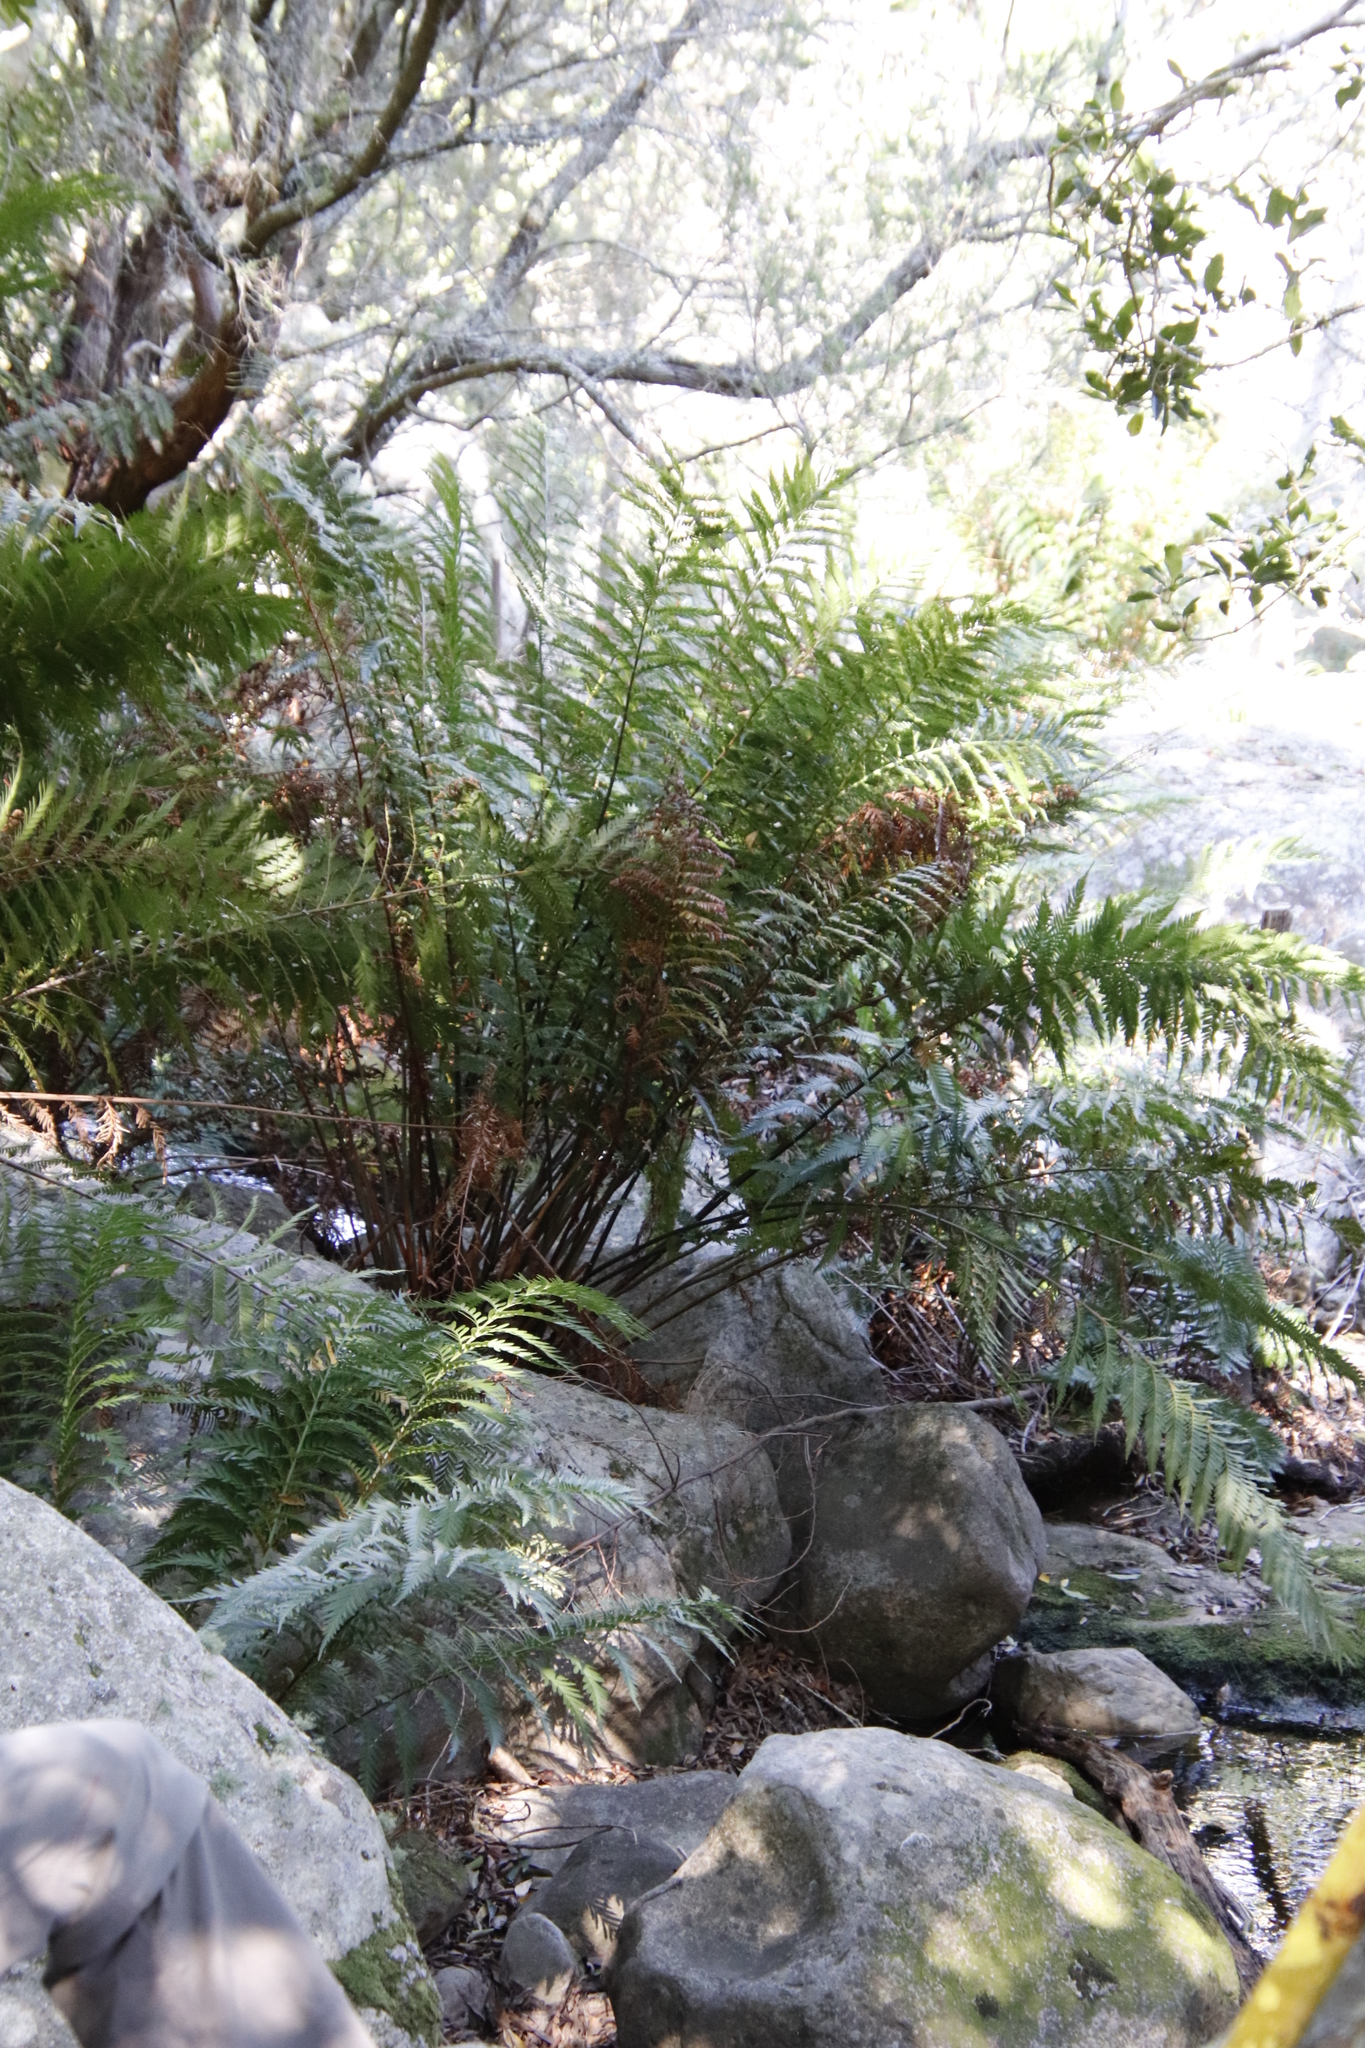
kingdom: Plantae
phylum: Tracheophyta
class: Polypodiopsida
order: Osmundales
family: Osmundaceae
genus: Todea
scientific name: Todea barbara
